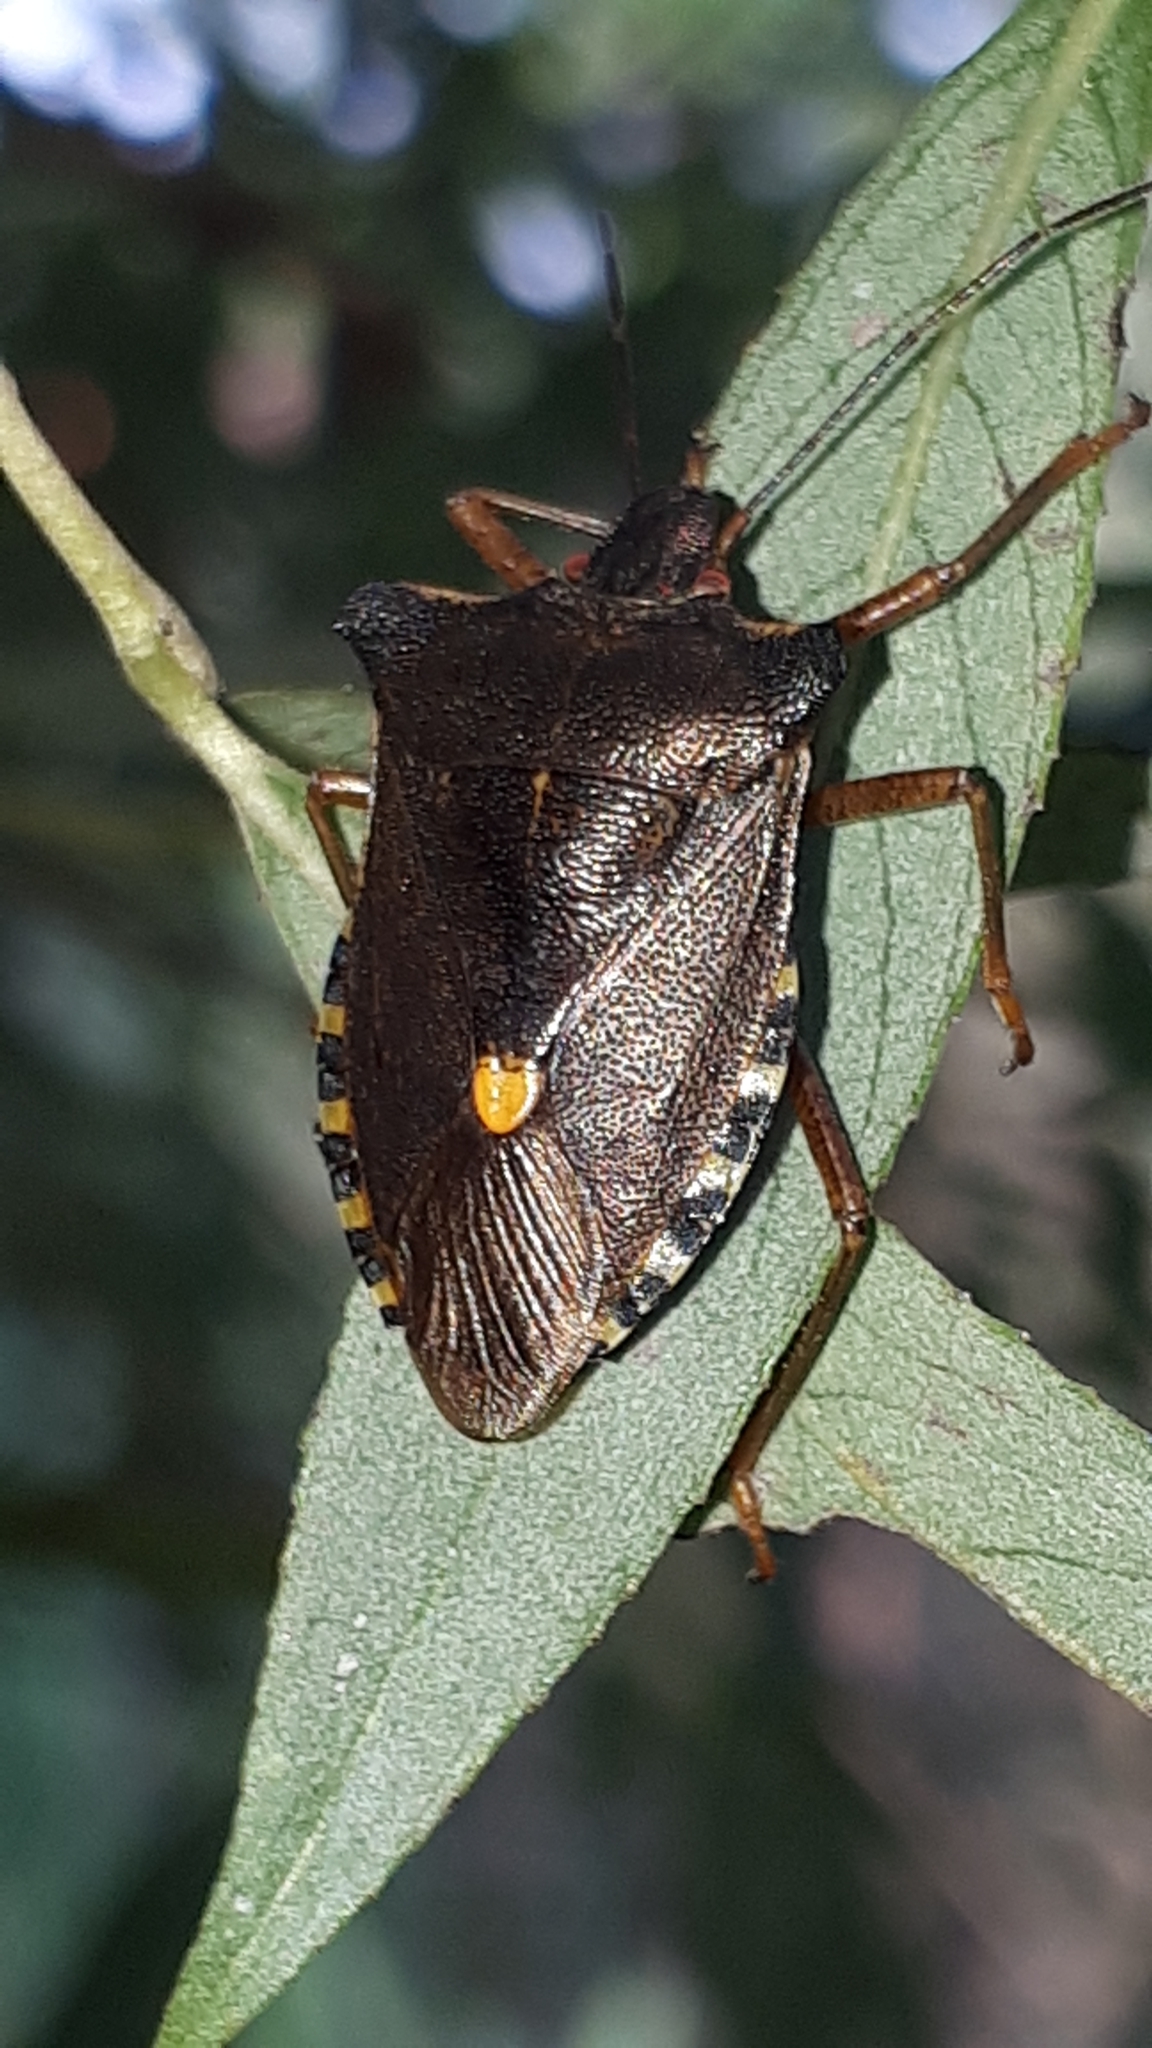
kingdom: Animalia
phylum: Arthropoda
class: Insecta
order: Hemiptera
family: Pentatomidae
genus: Pentatoma
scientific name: Pentatoma rufipes
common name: Forest bug
